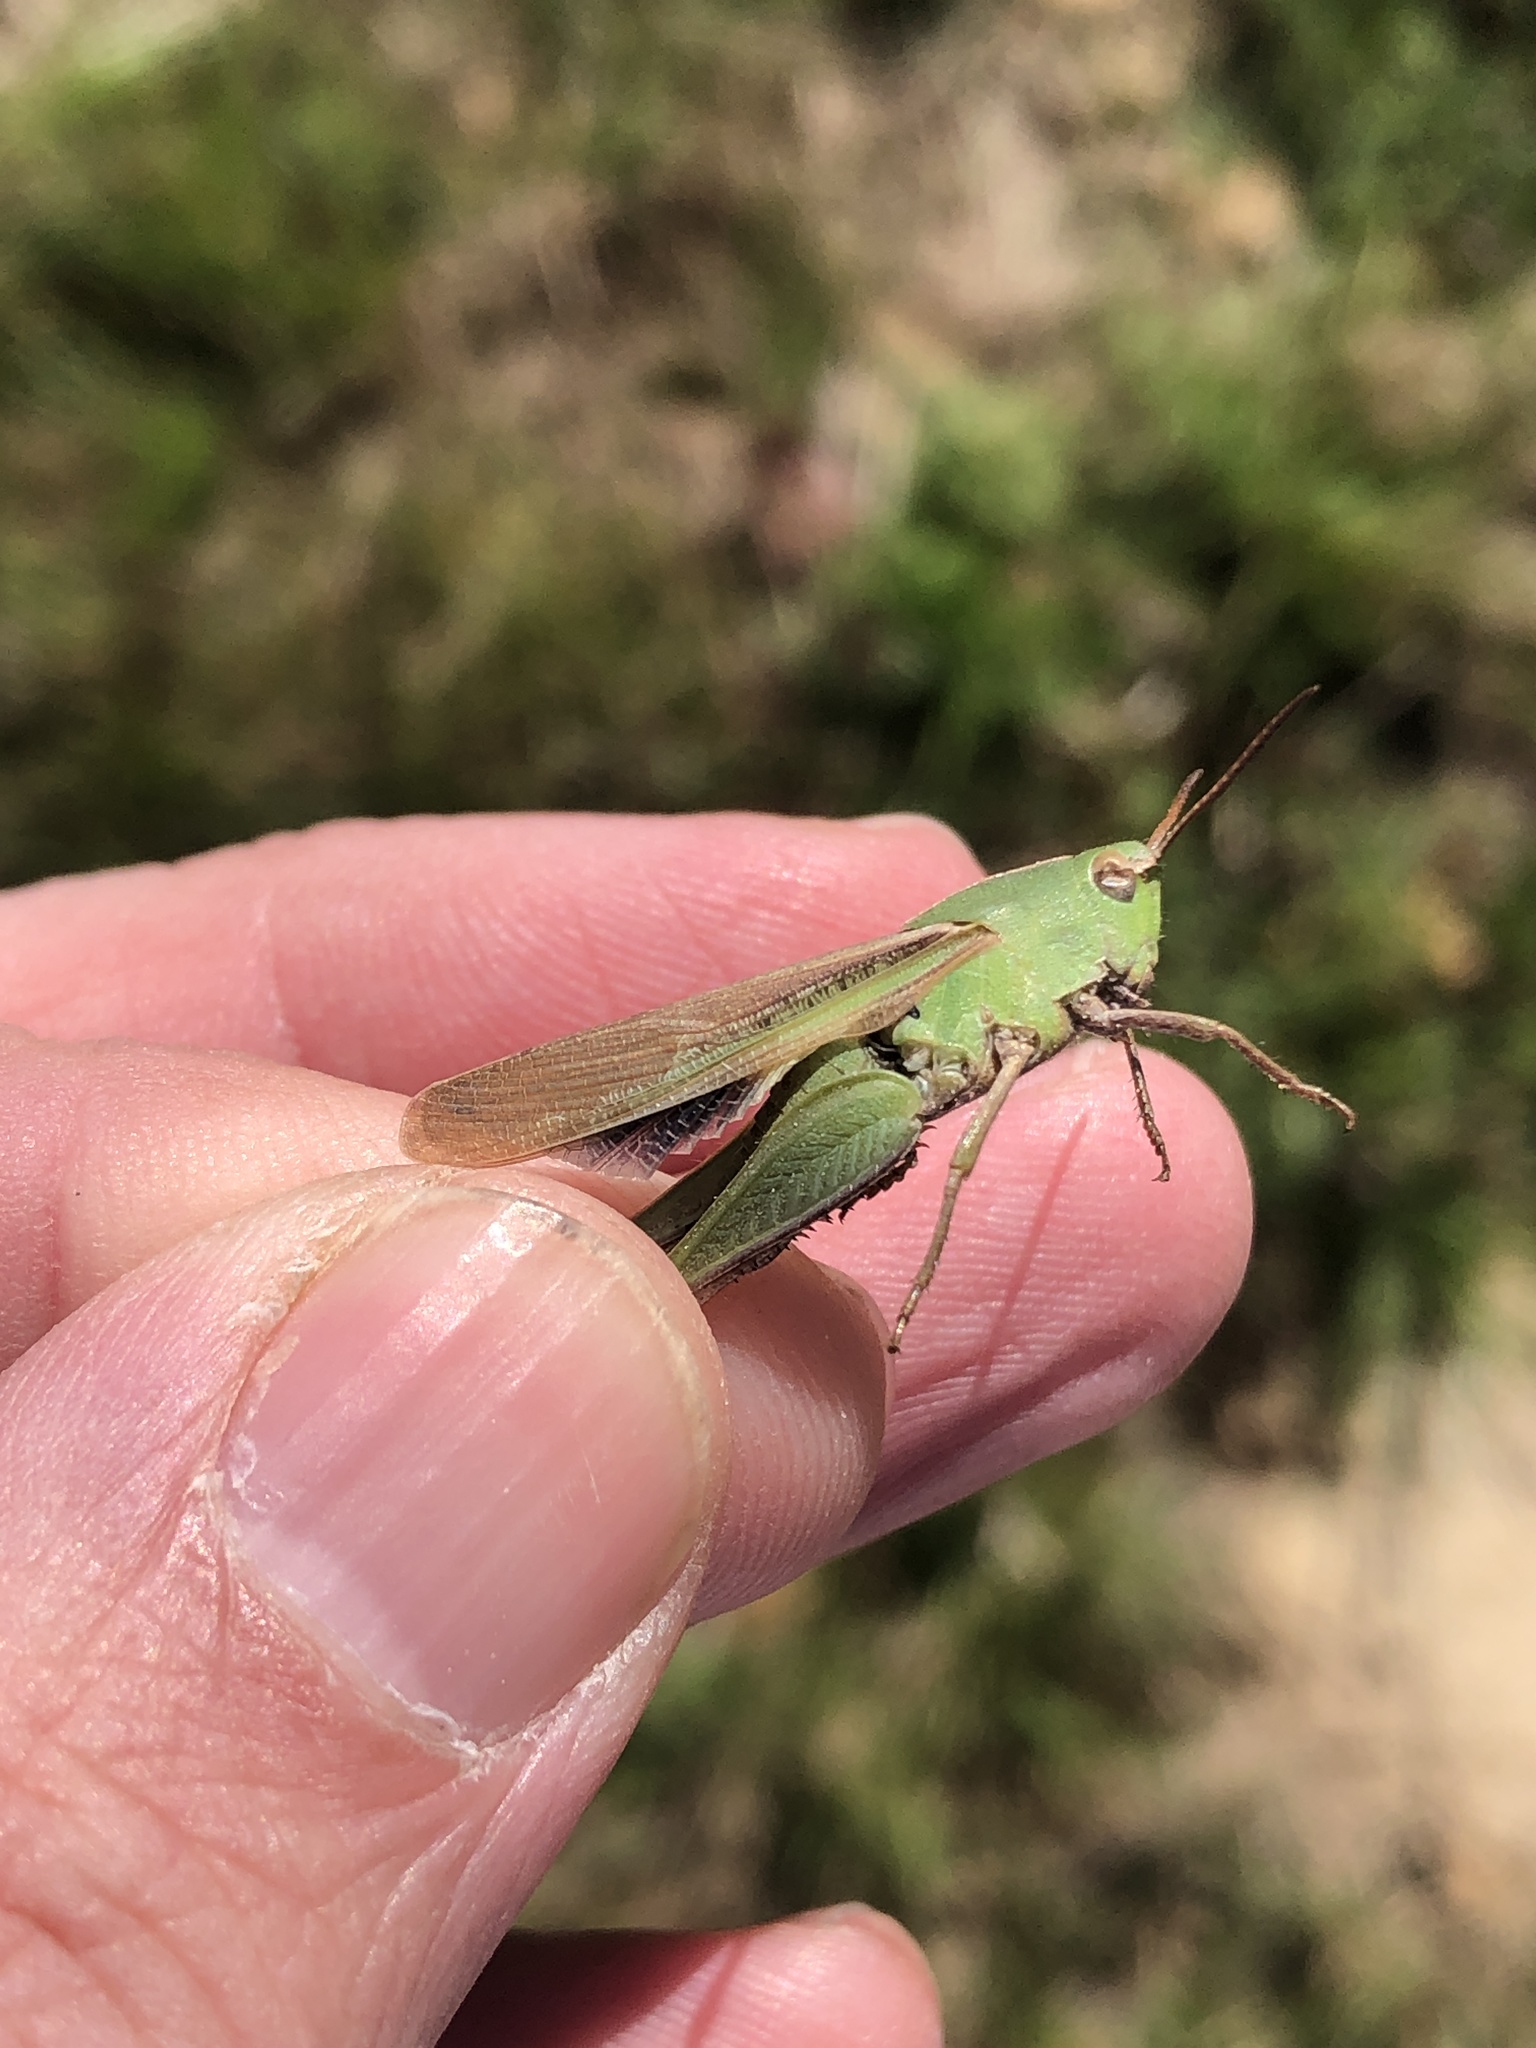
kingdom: Animalia
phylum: Arthropoda
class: Insecta
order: Orthoptera
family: Acrididae
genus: Chortophaga
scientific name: Chortophaga viridifasciata
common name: Green-striped grasshopper
